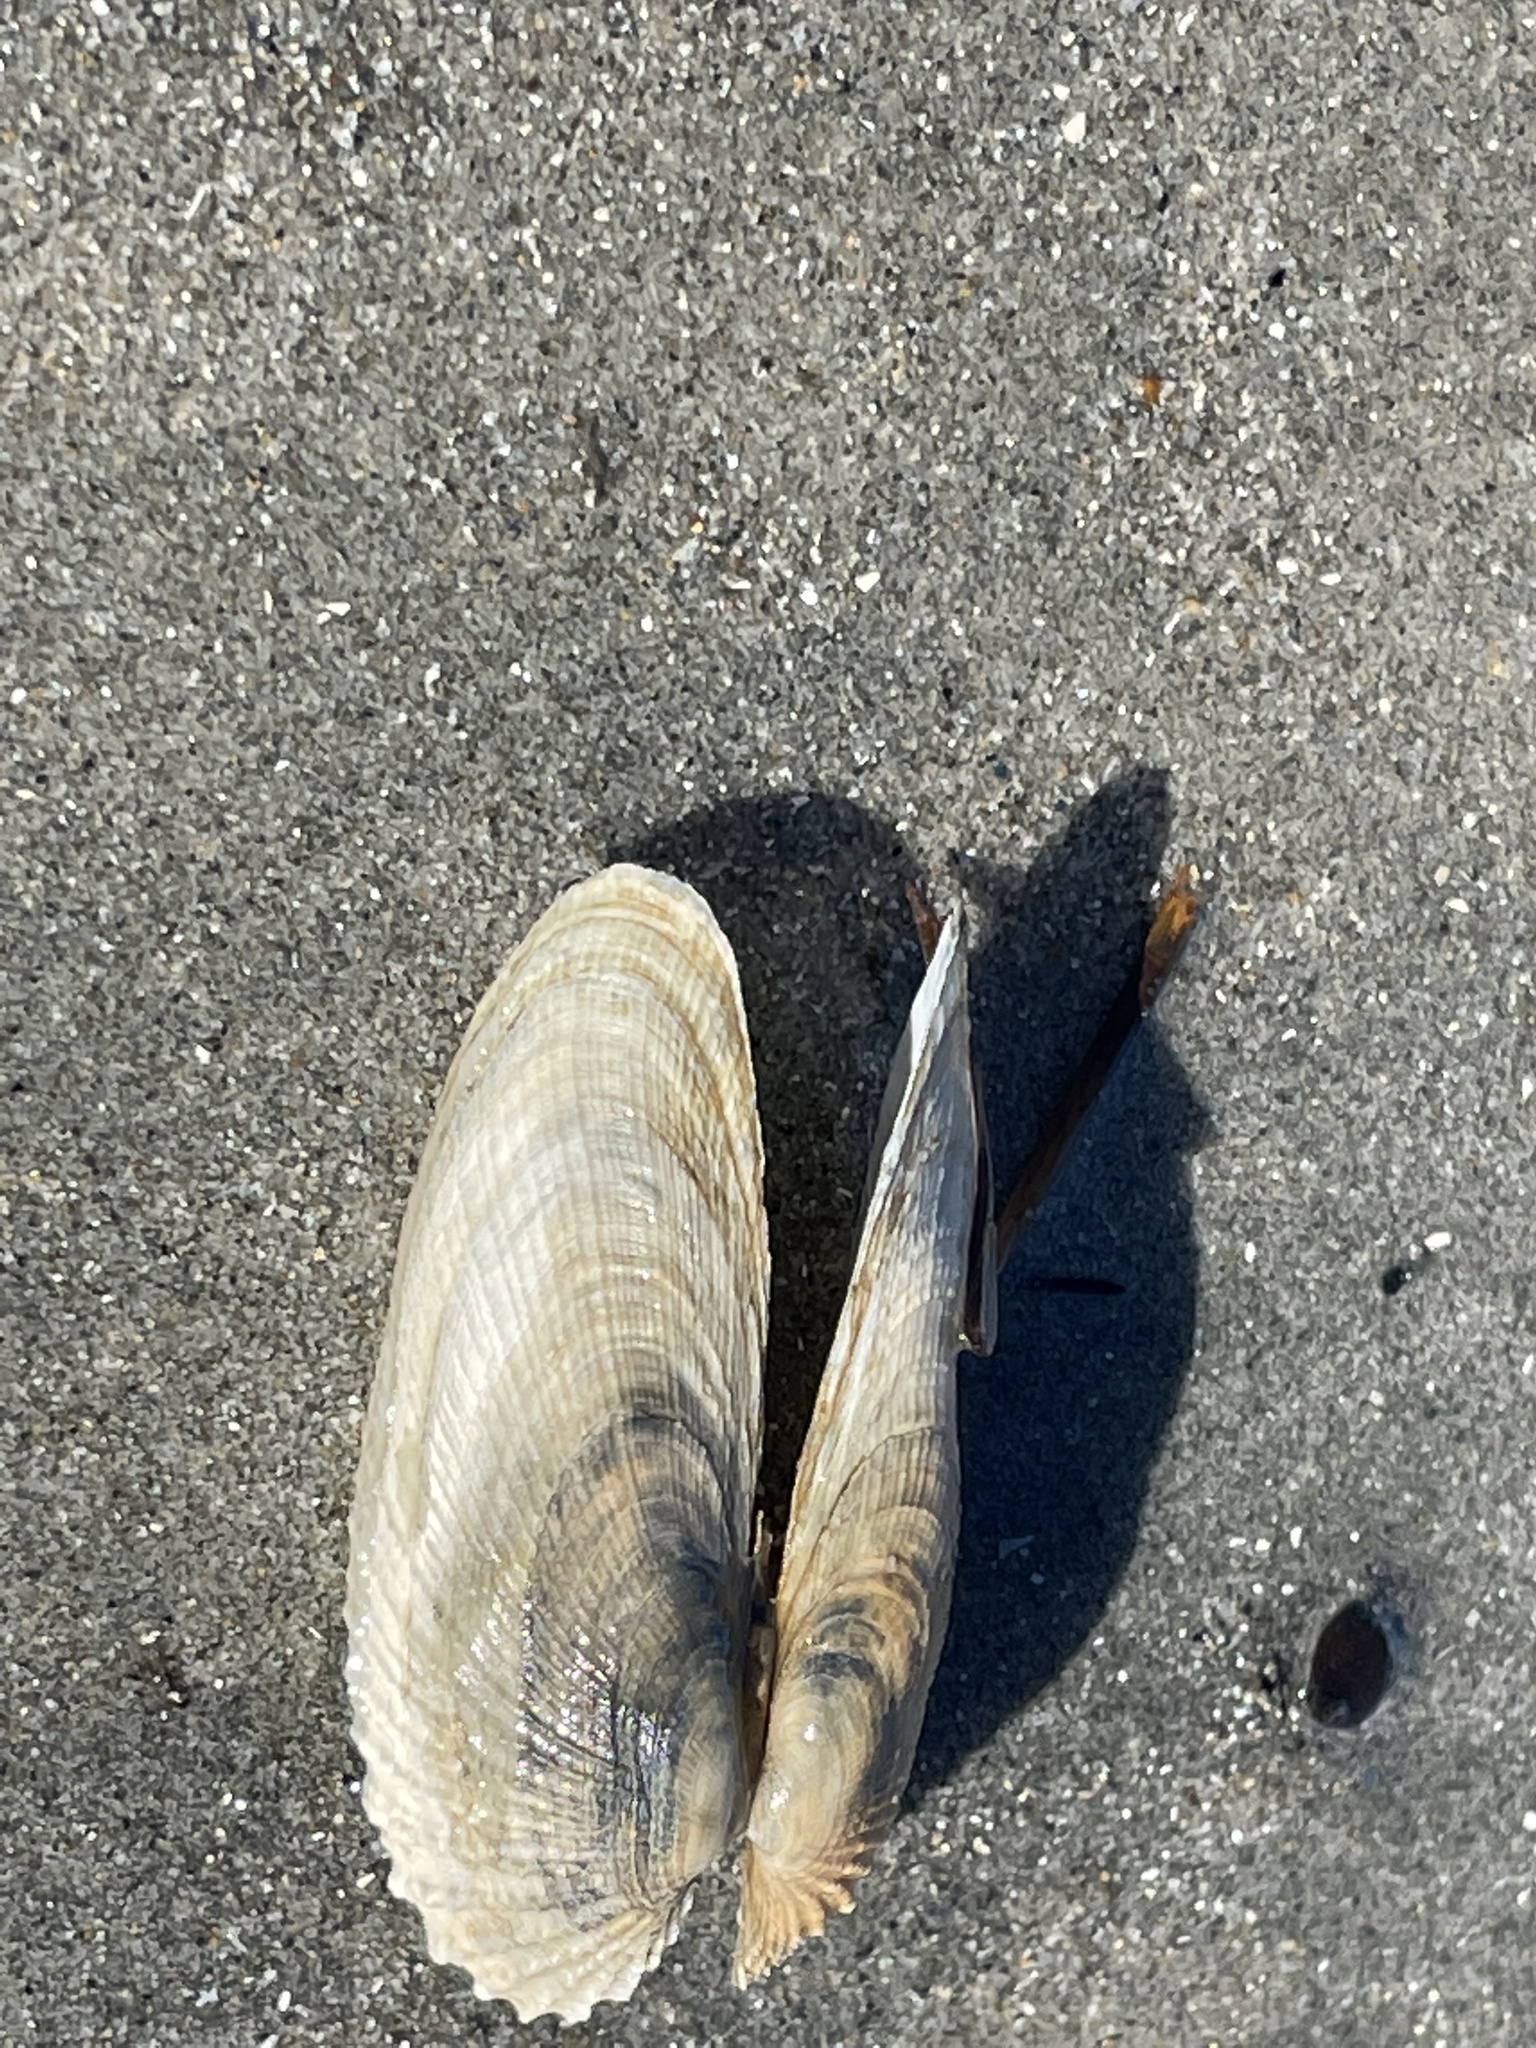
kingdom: Animalia
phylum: Mollusca
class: Bivalvia
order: Venerida
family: Veneridae
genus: Petricolaria
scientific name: Petricolaria pholadiformis
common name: American piddock
